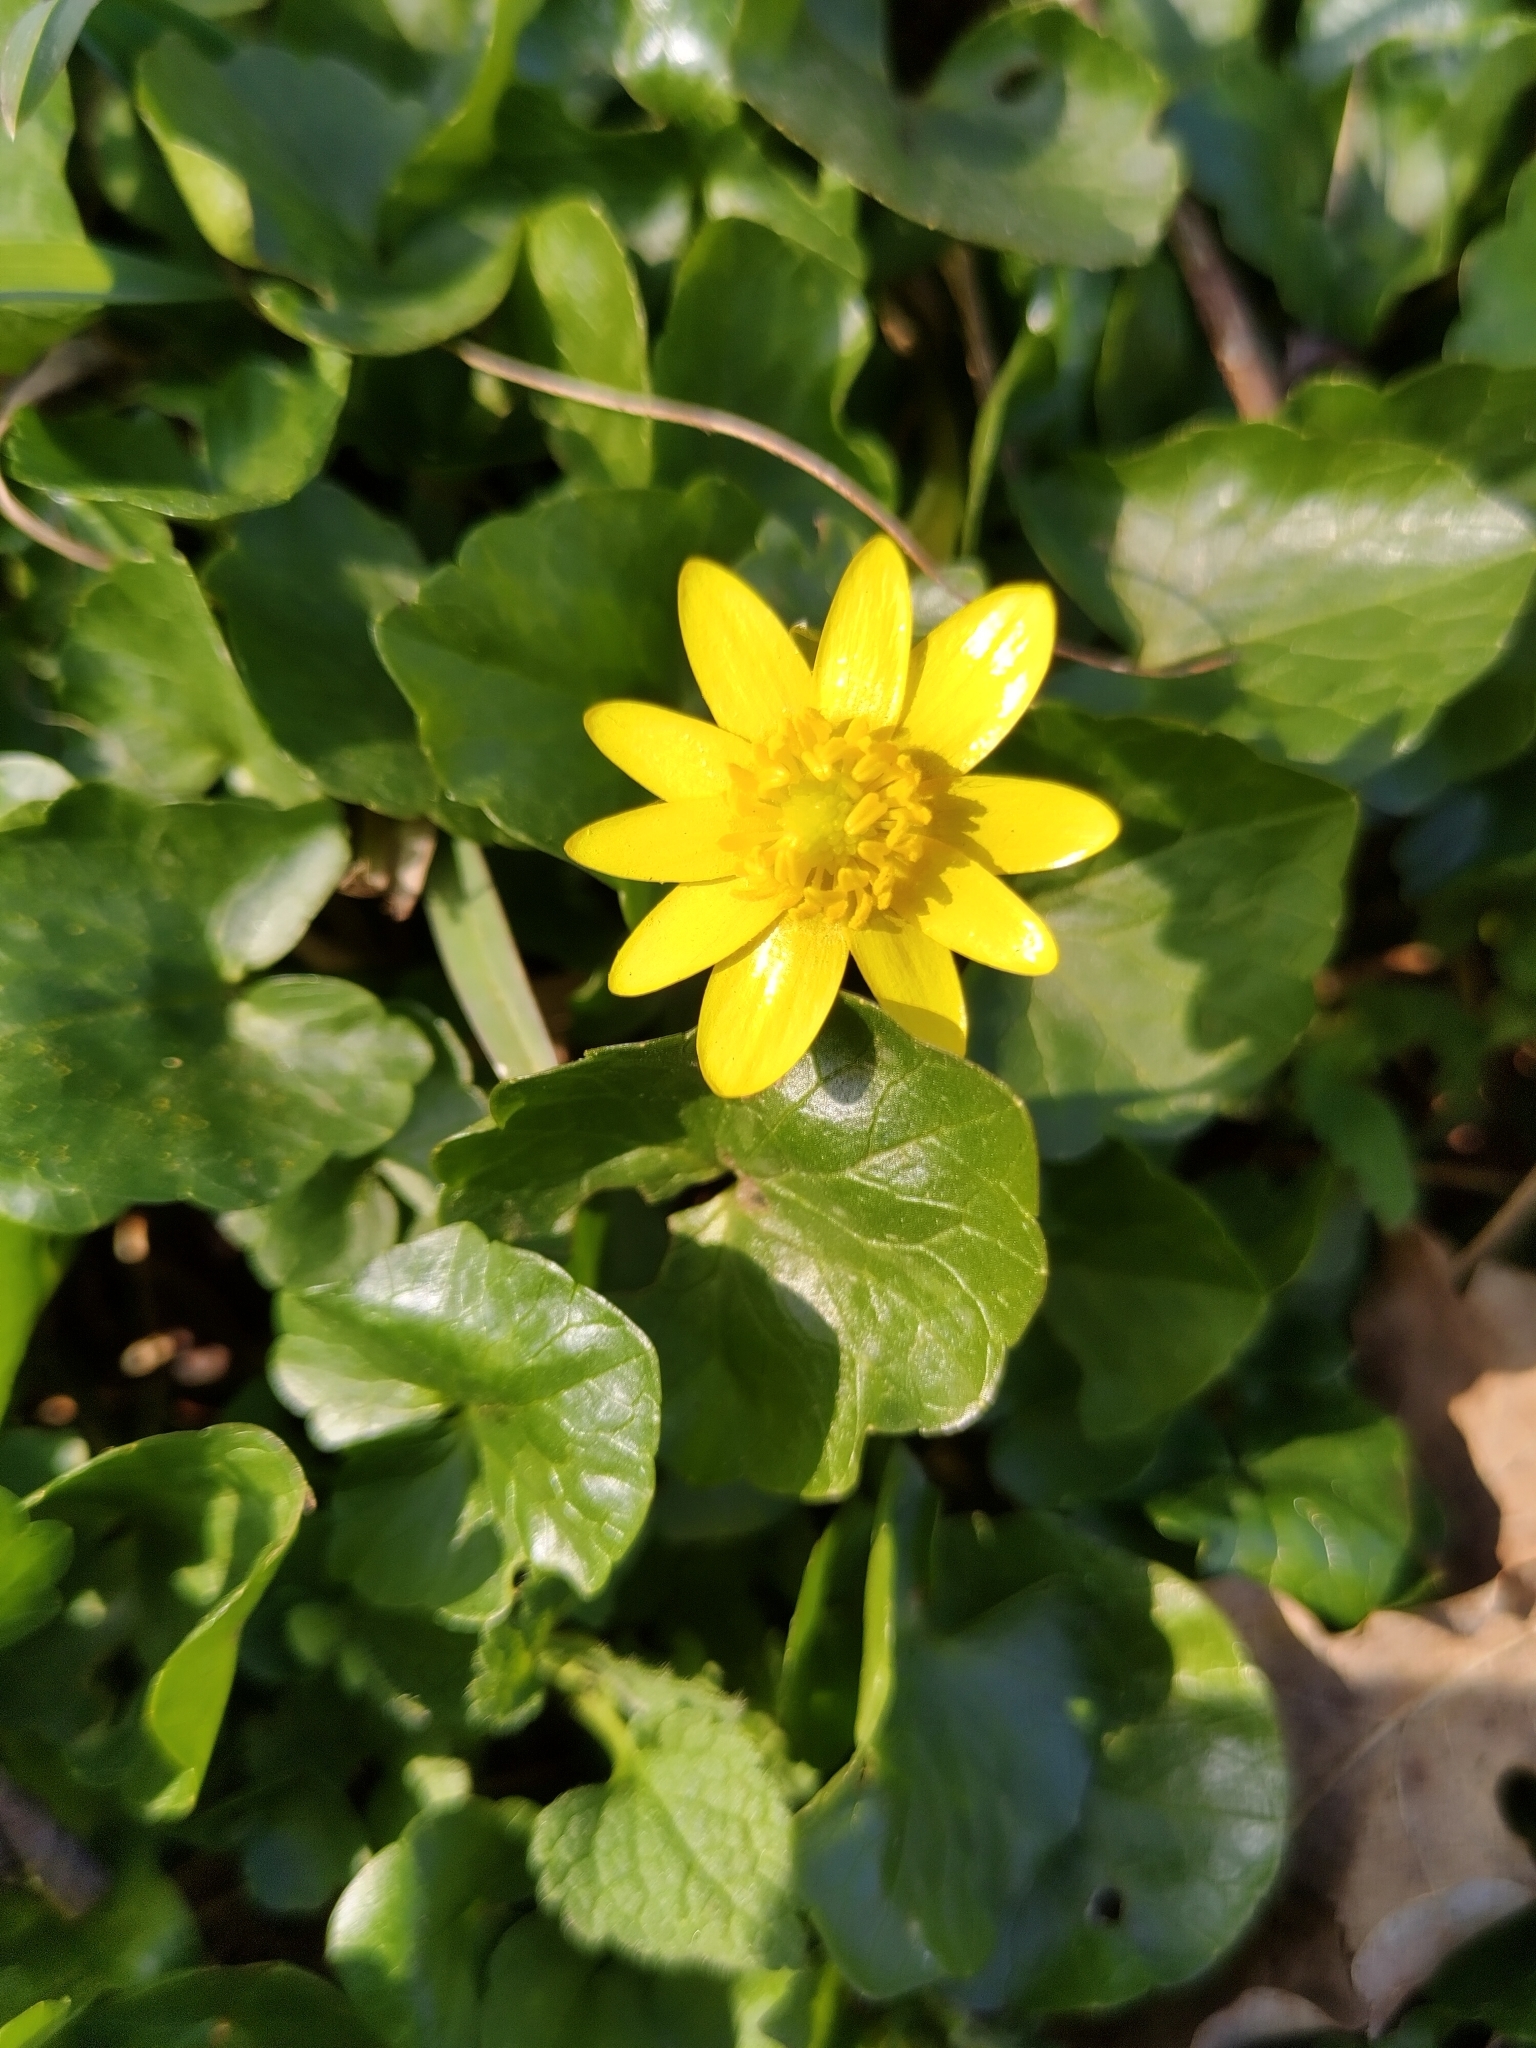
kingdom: Plantae
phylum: Tracheophyta
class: Magnoliopsida
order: Ranunculales
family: Ranunculaceae
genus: Ficaria
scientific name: Ficaria verna
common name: Lesser celandine
